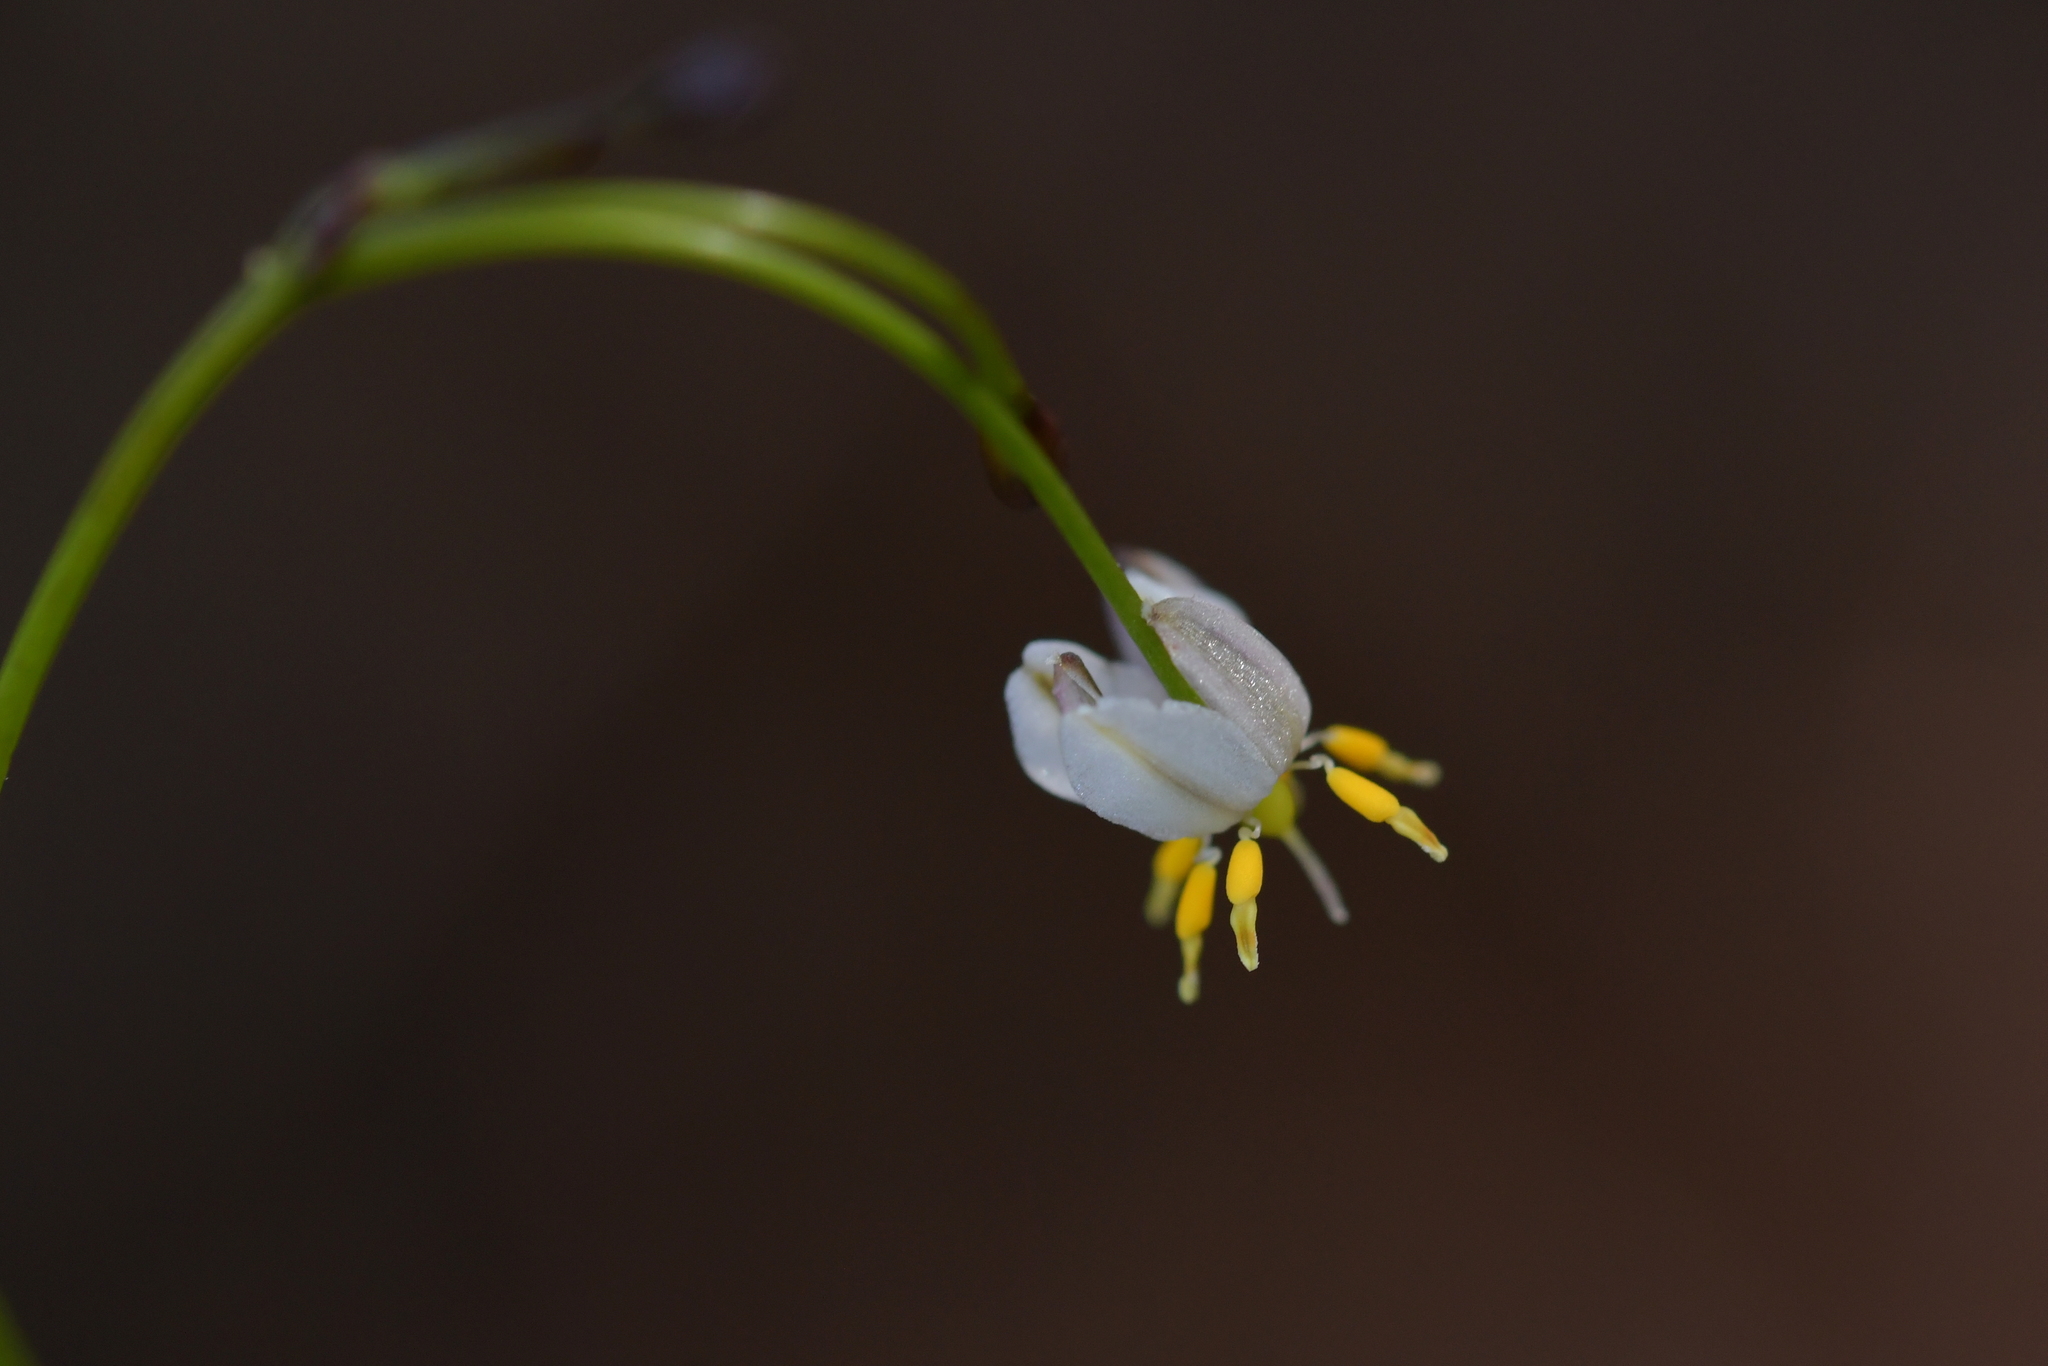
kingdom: Plantae
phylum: Tracheophyta
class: Liliopsida
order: Asparagales
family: Asphodelaceae
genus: Dianella
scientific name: Dianella nigra
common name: New zealand-blueberry
